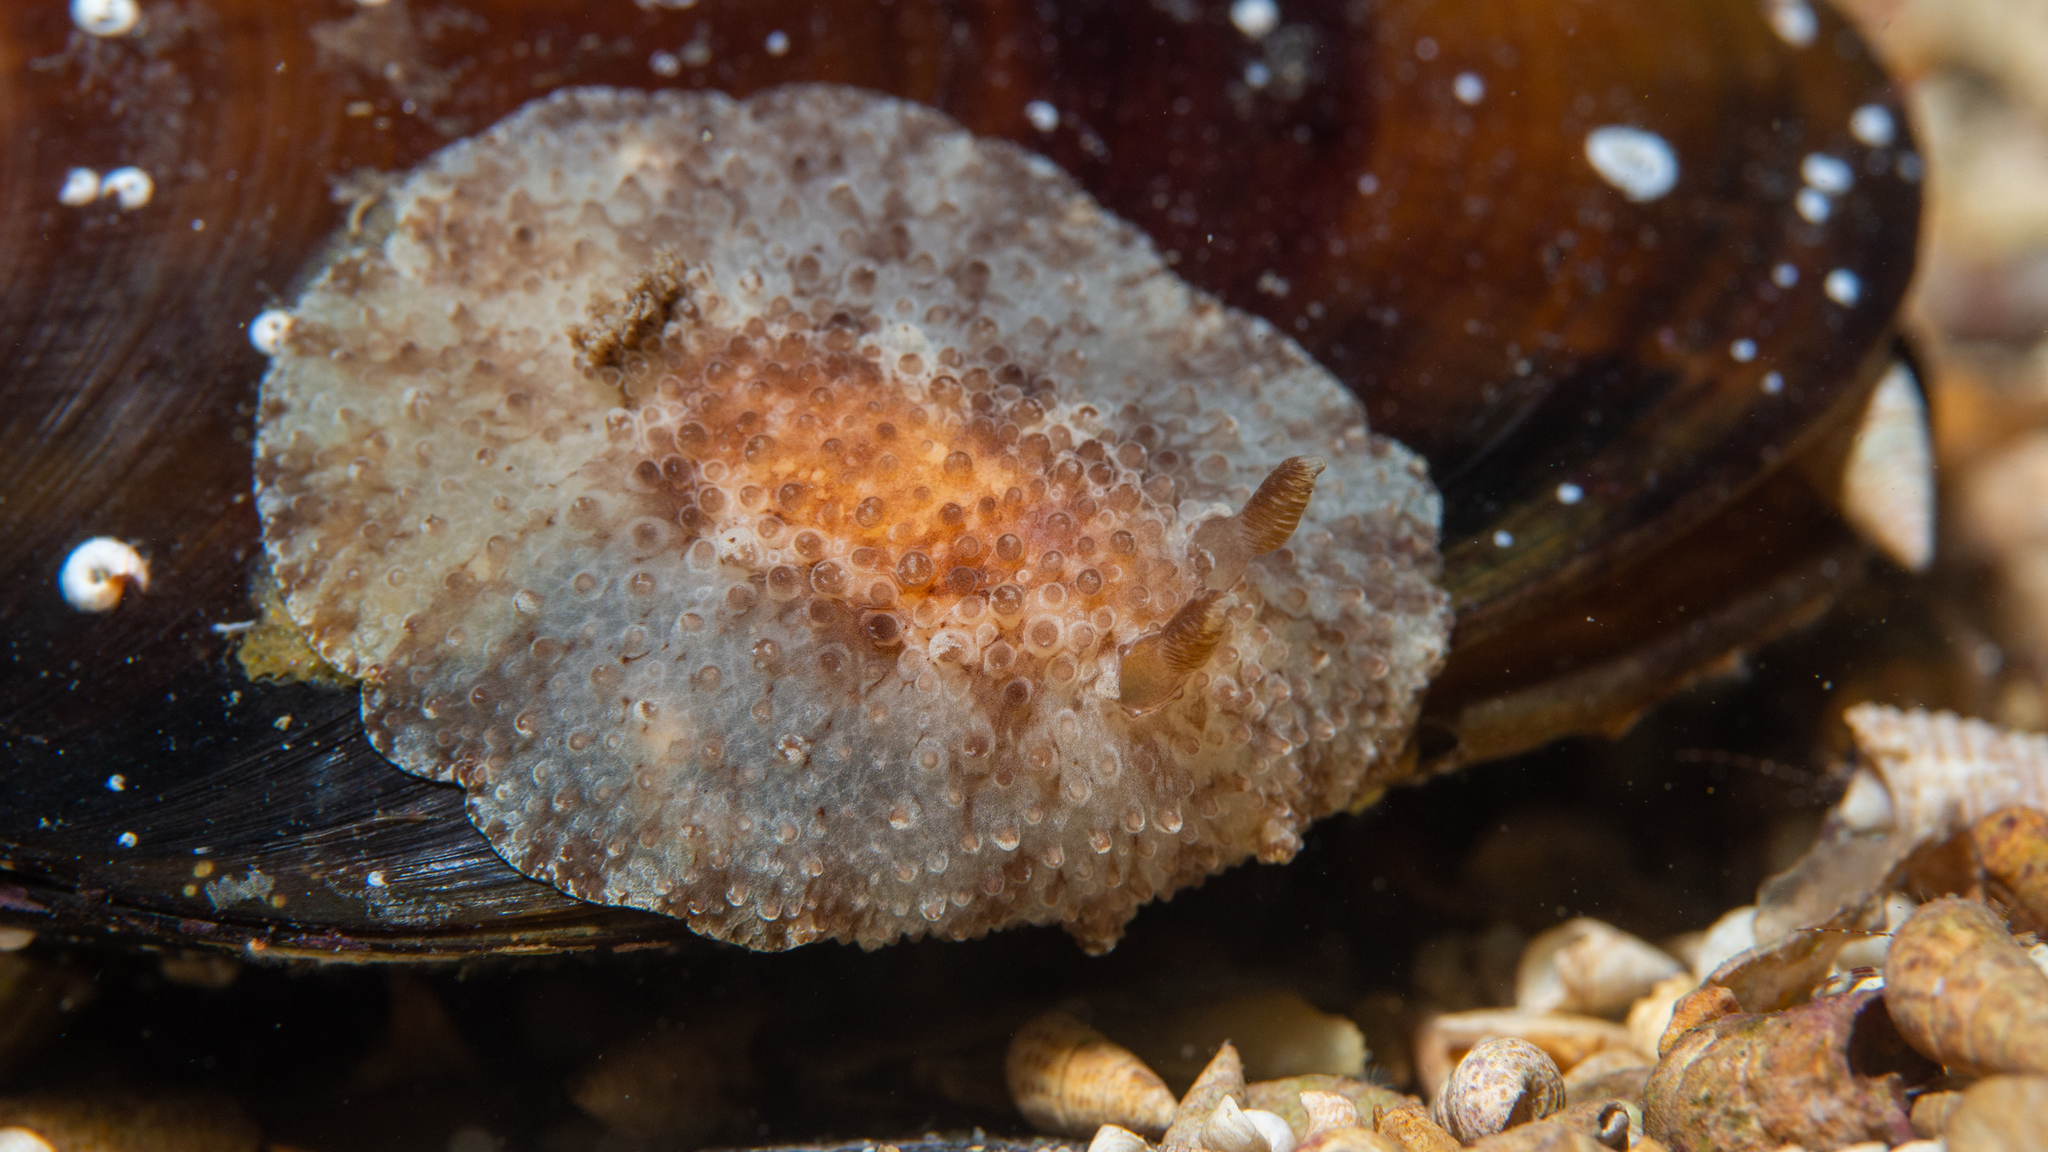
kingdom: Animalia
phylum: Mollusca
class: Gastropoda
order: Nudibranchia
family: Discodorididae
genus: Carminodoris
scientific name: Carminodoris nodulosa
